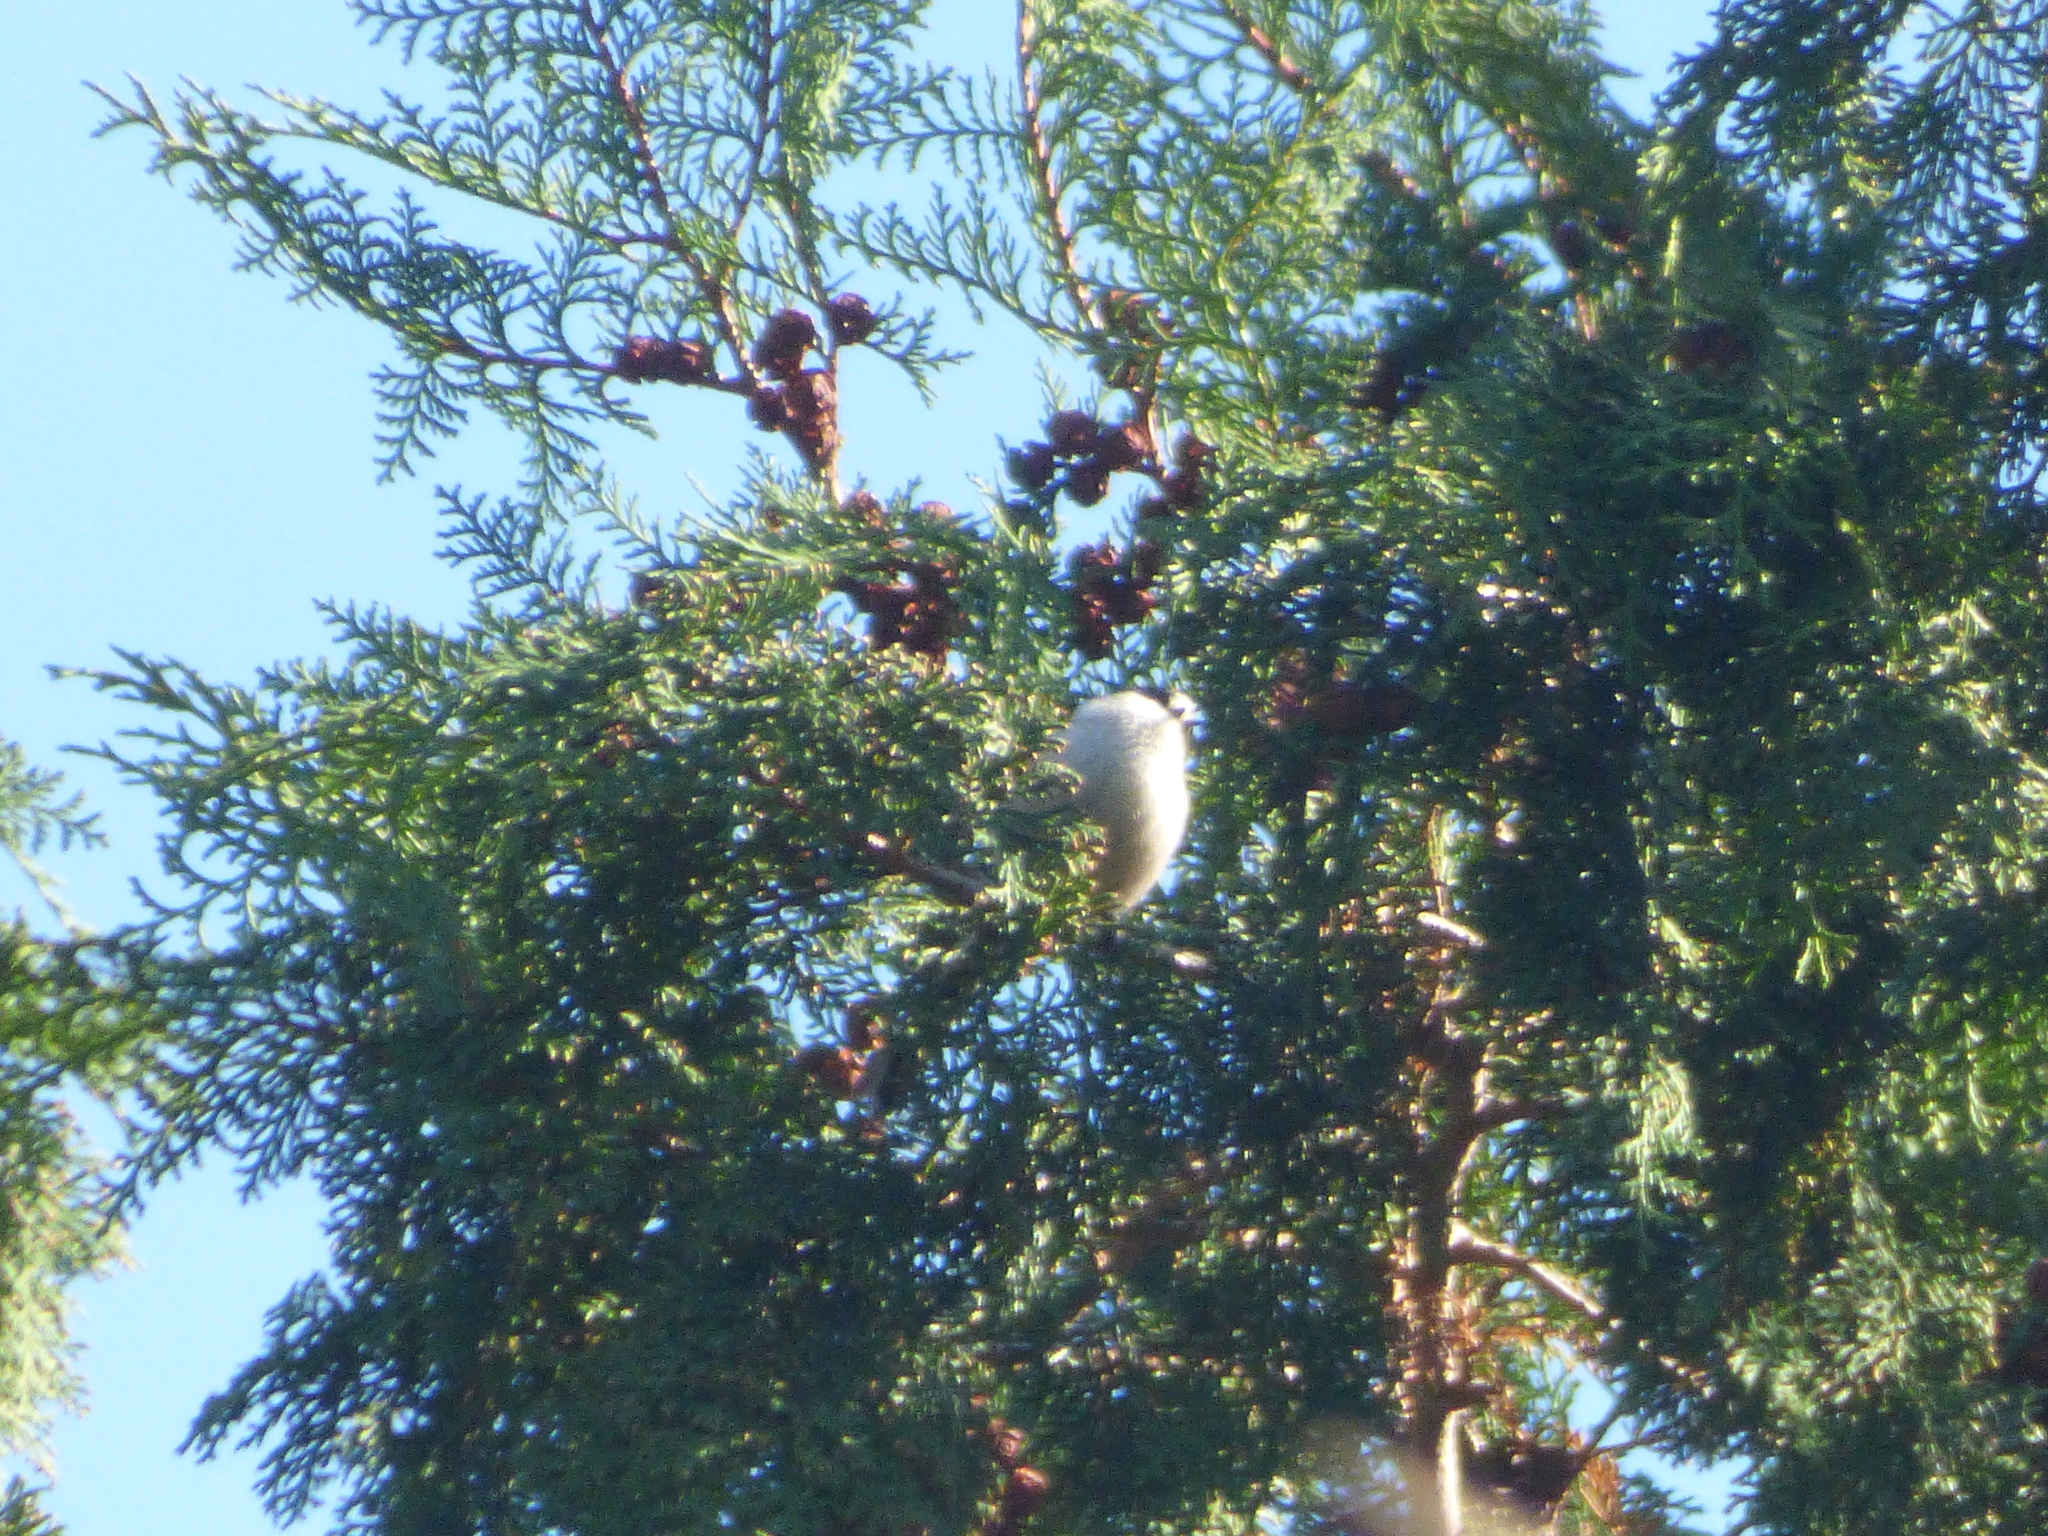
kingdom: Animalia
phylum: Chordata
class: Aves
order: Passeriformes
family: Aegithalidae
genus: Aegithalos
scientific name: Aegithalos caudatus
